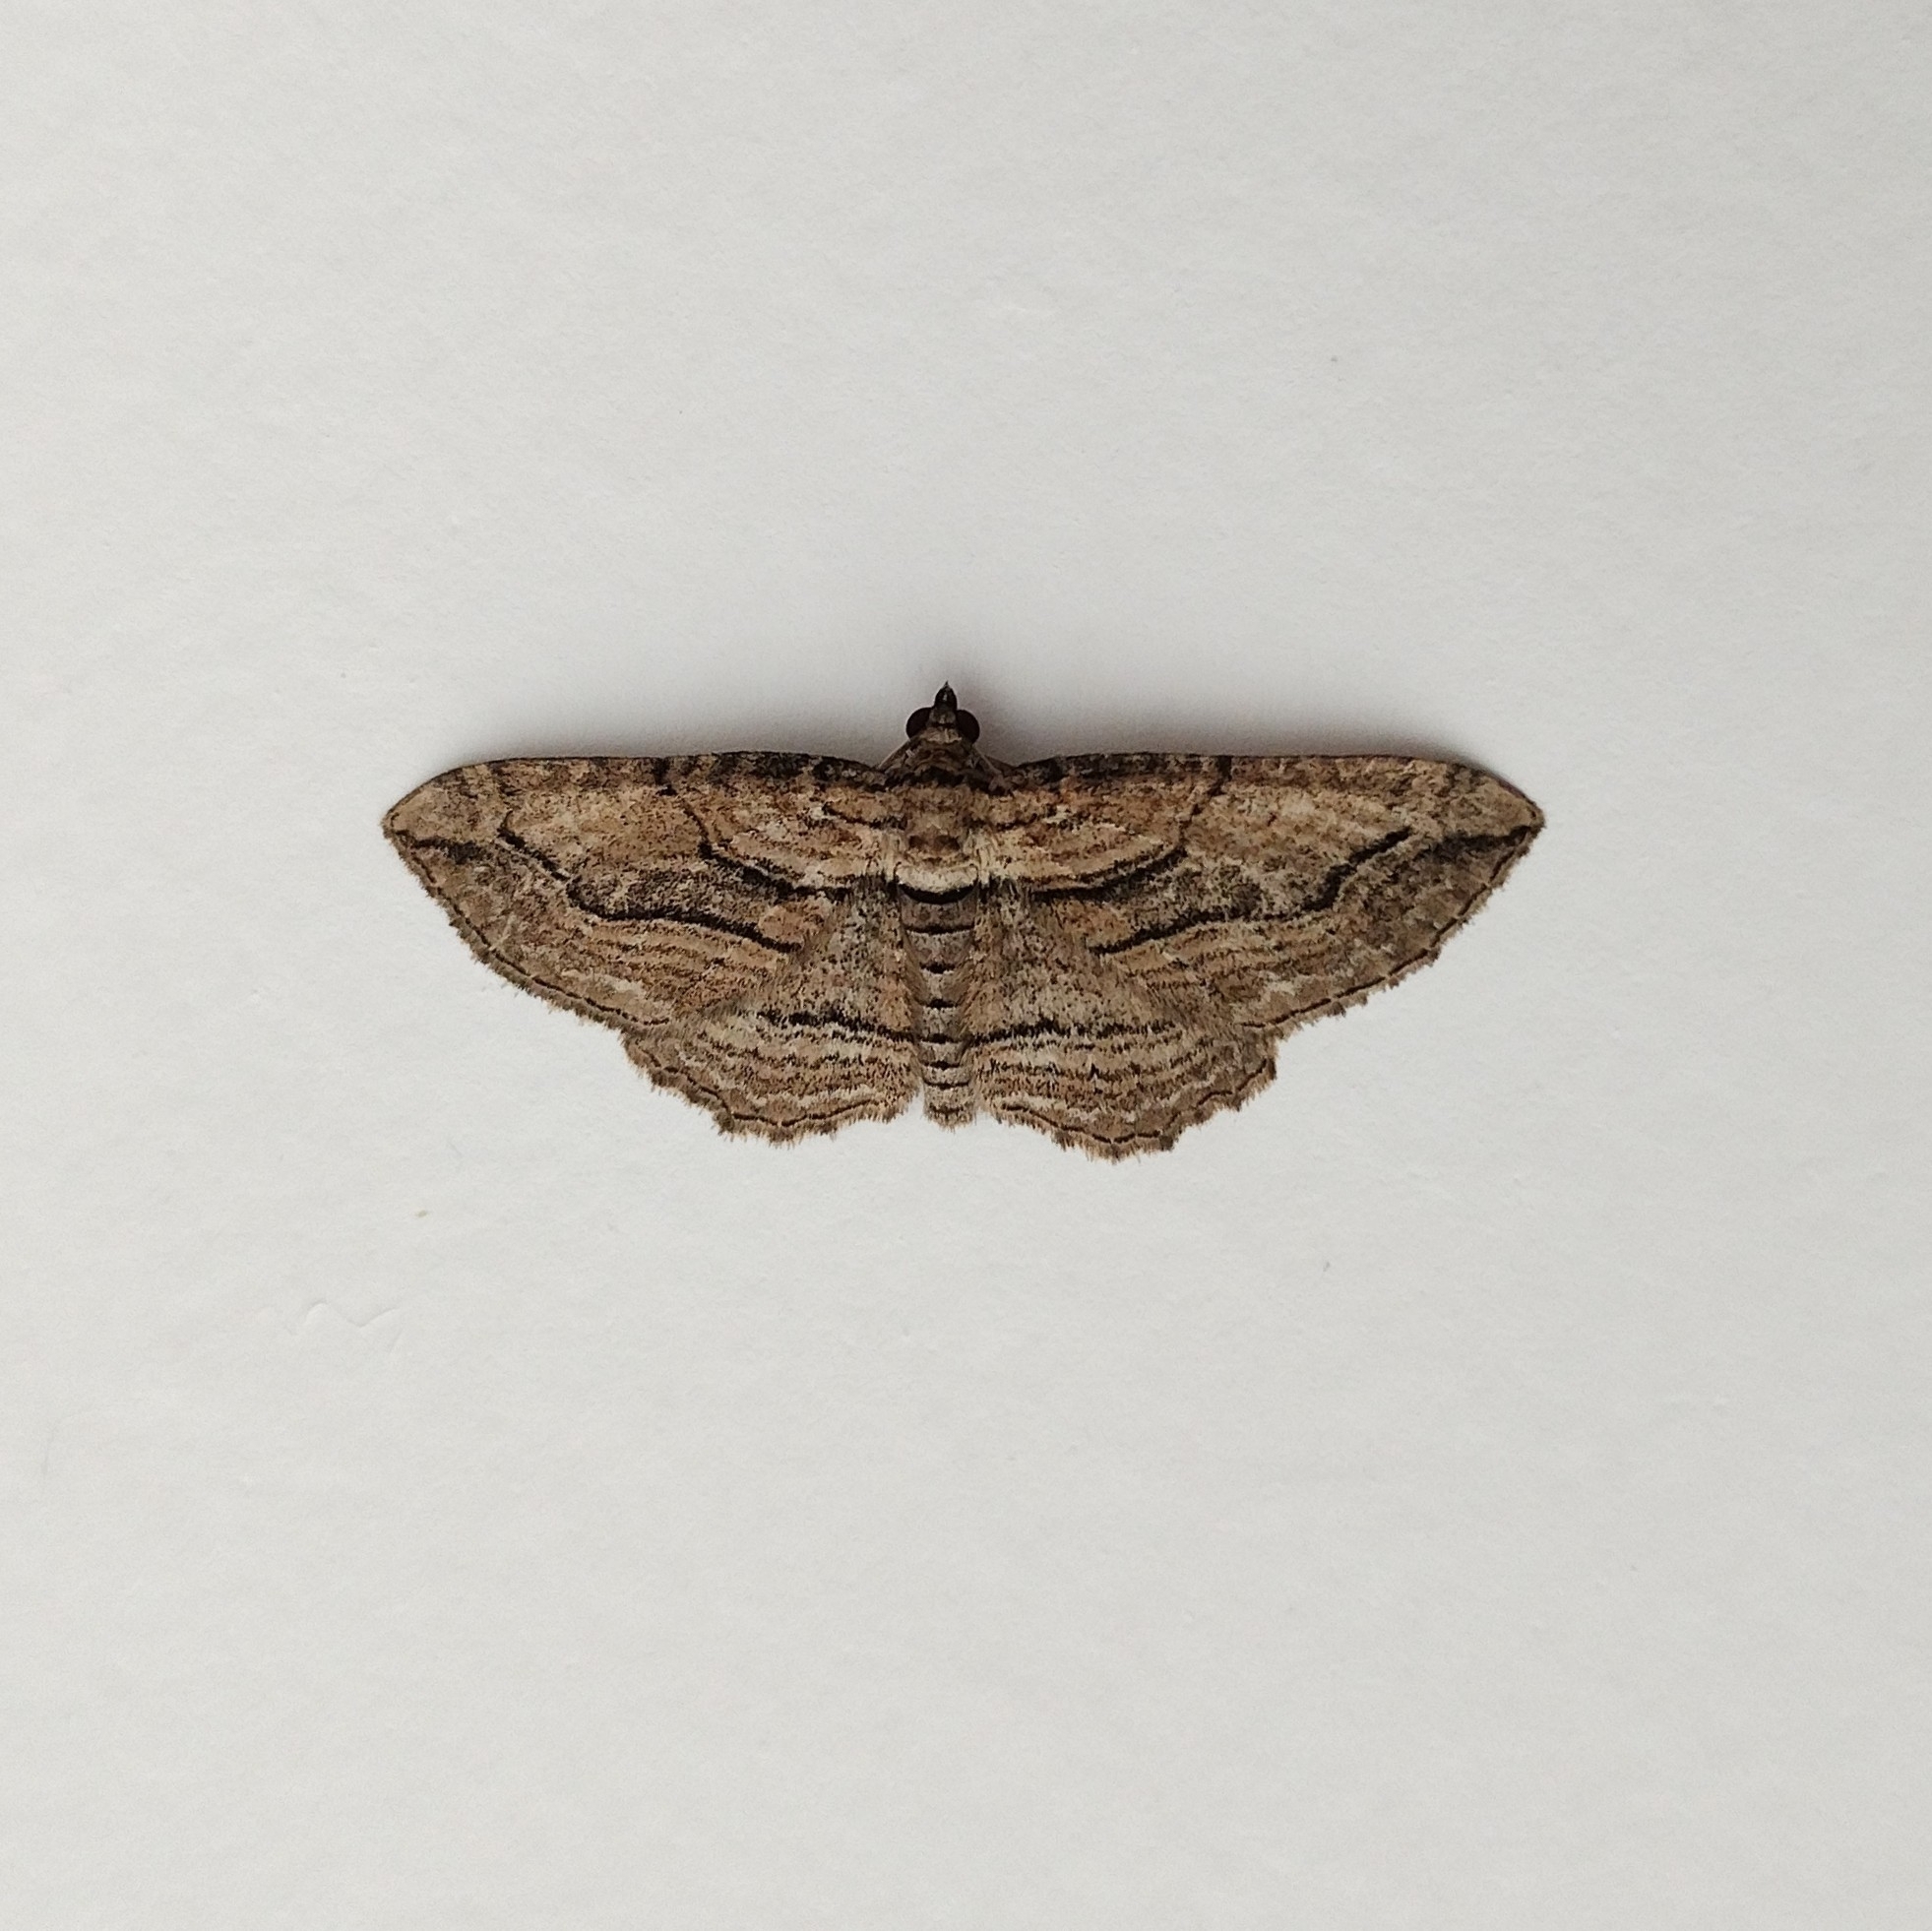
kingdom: Animalia
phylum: Arthropoda
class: Insecta
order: Lepidoptera
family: Geometridae
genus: Horisme
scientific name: Horisme corticata
